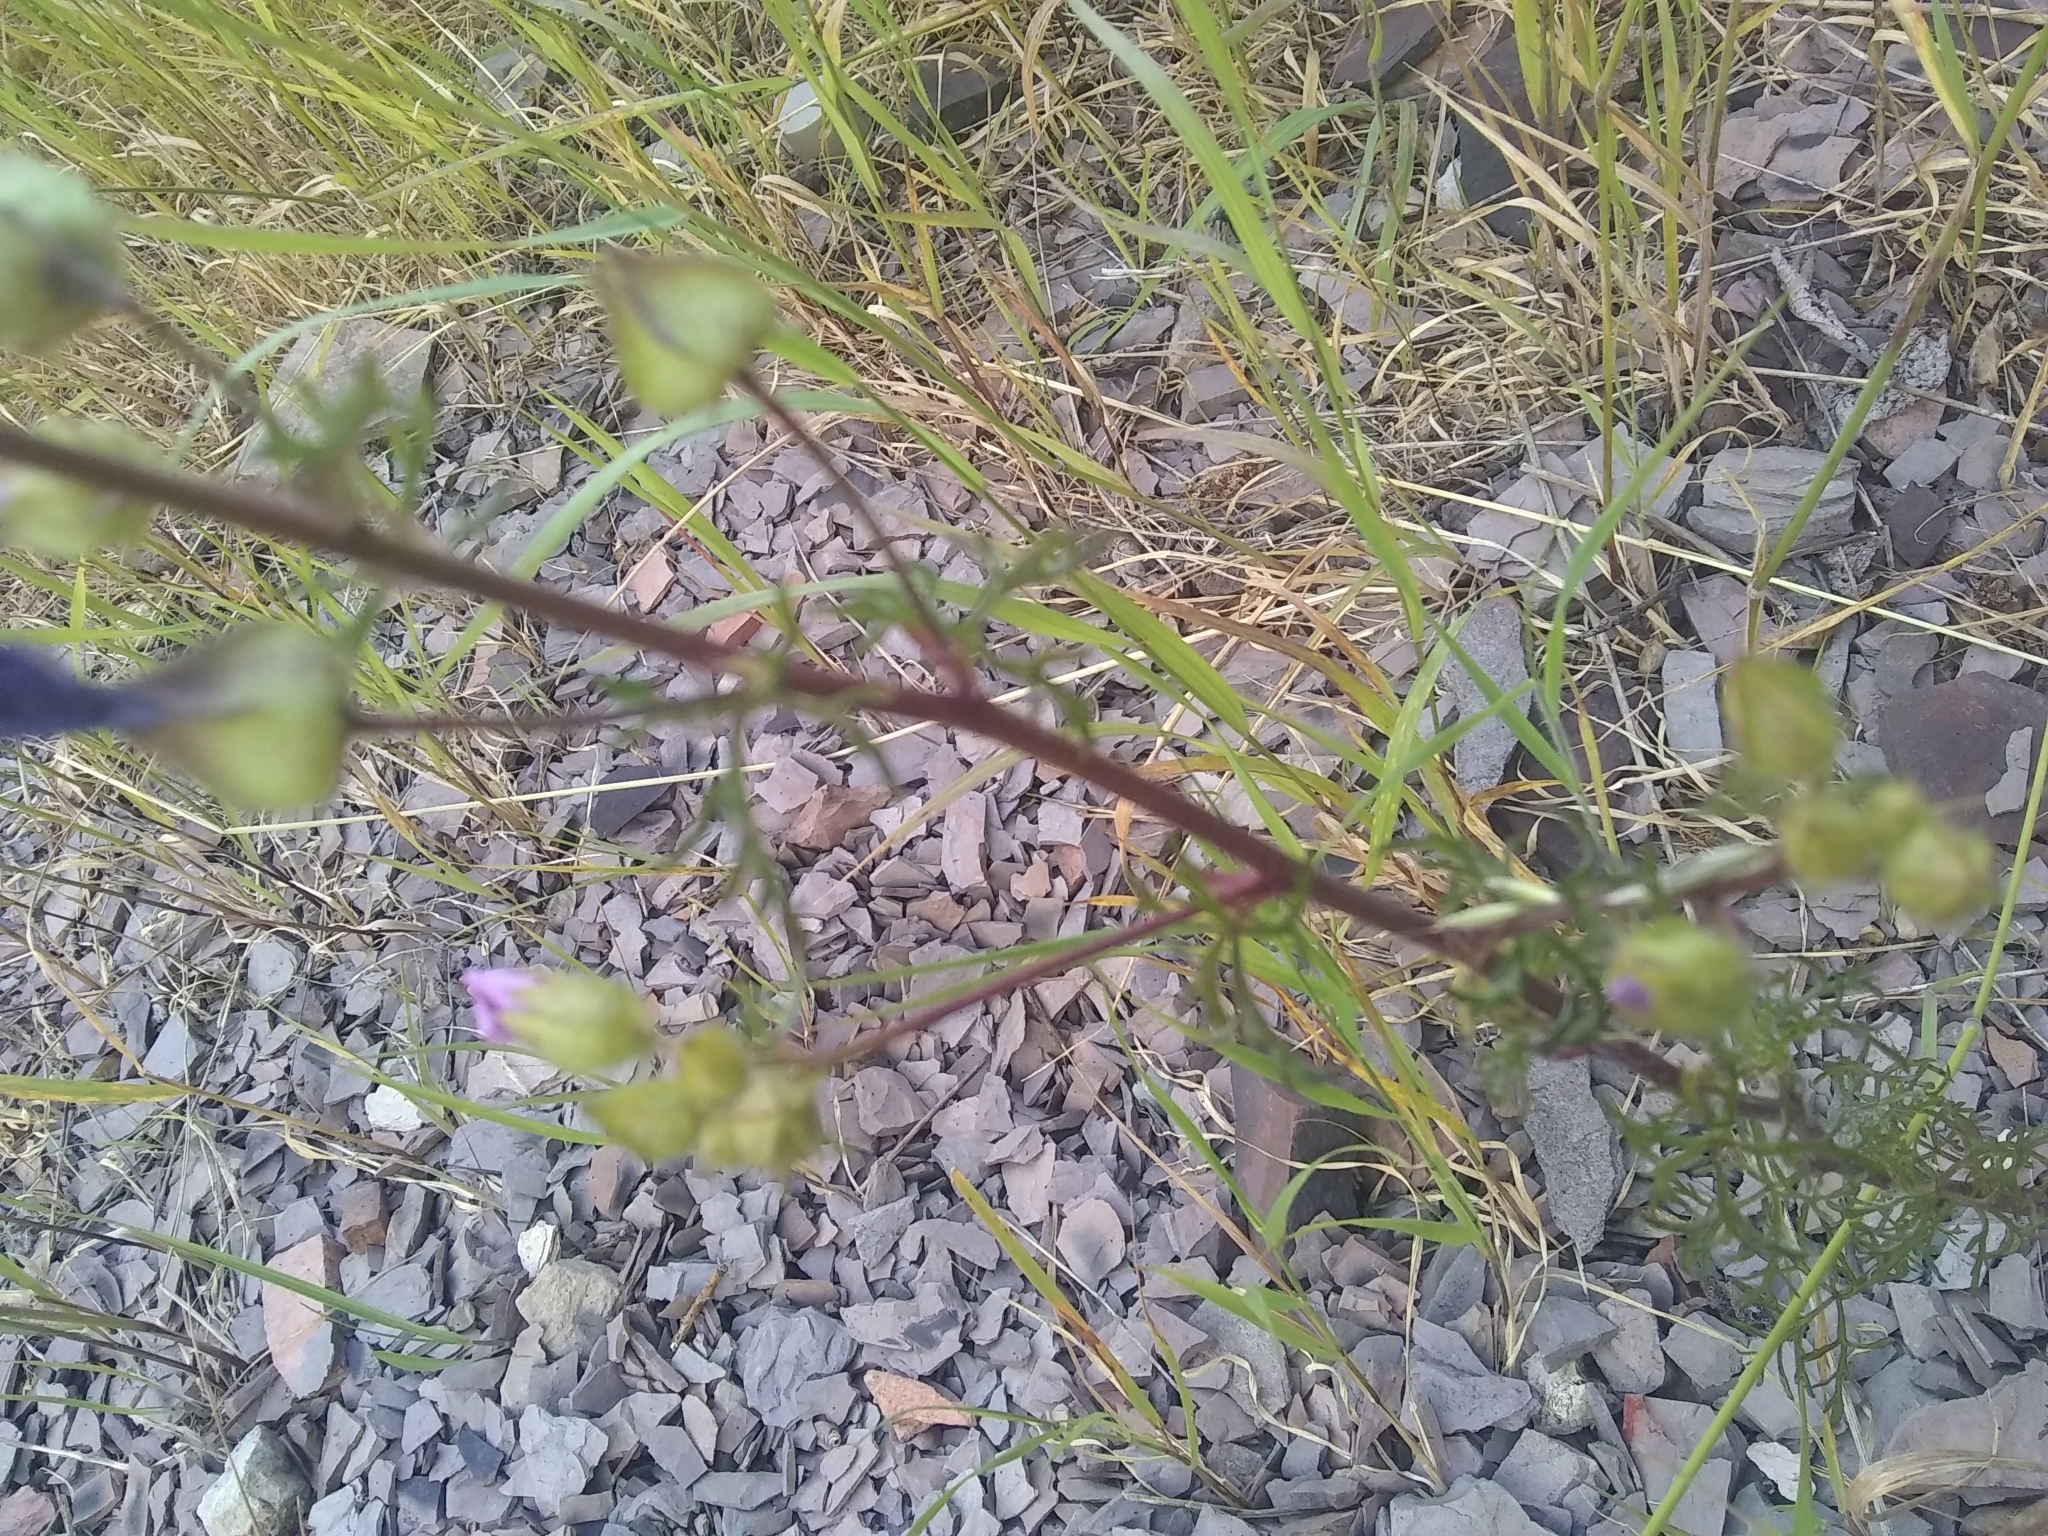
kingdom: Plantae
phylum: Tracheophyta
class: Magnoliopsida
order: Malvales
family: Malvaceae
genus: Malva
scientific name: Malva moschata
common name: Musk mallow
